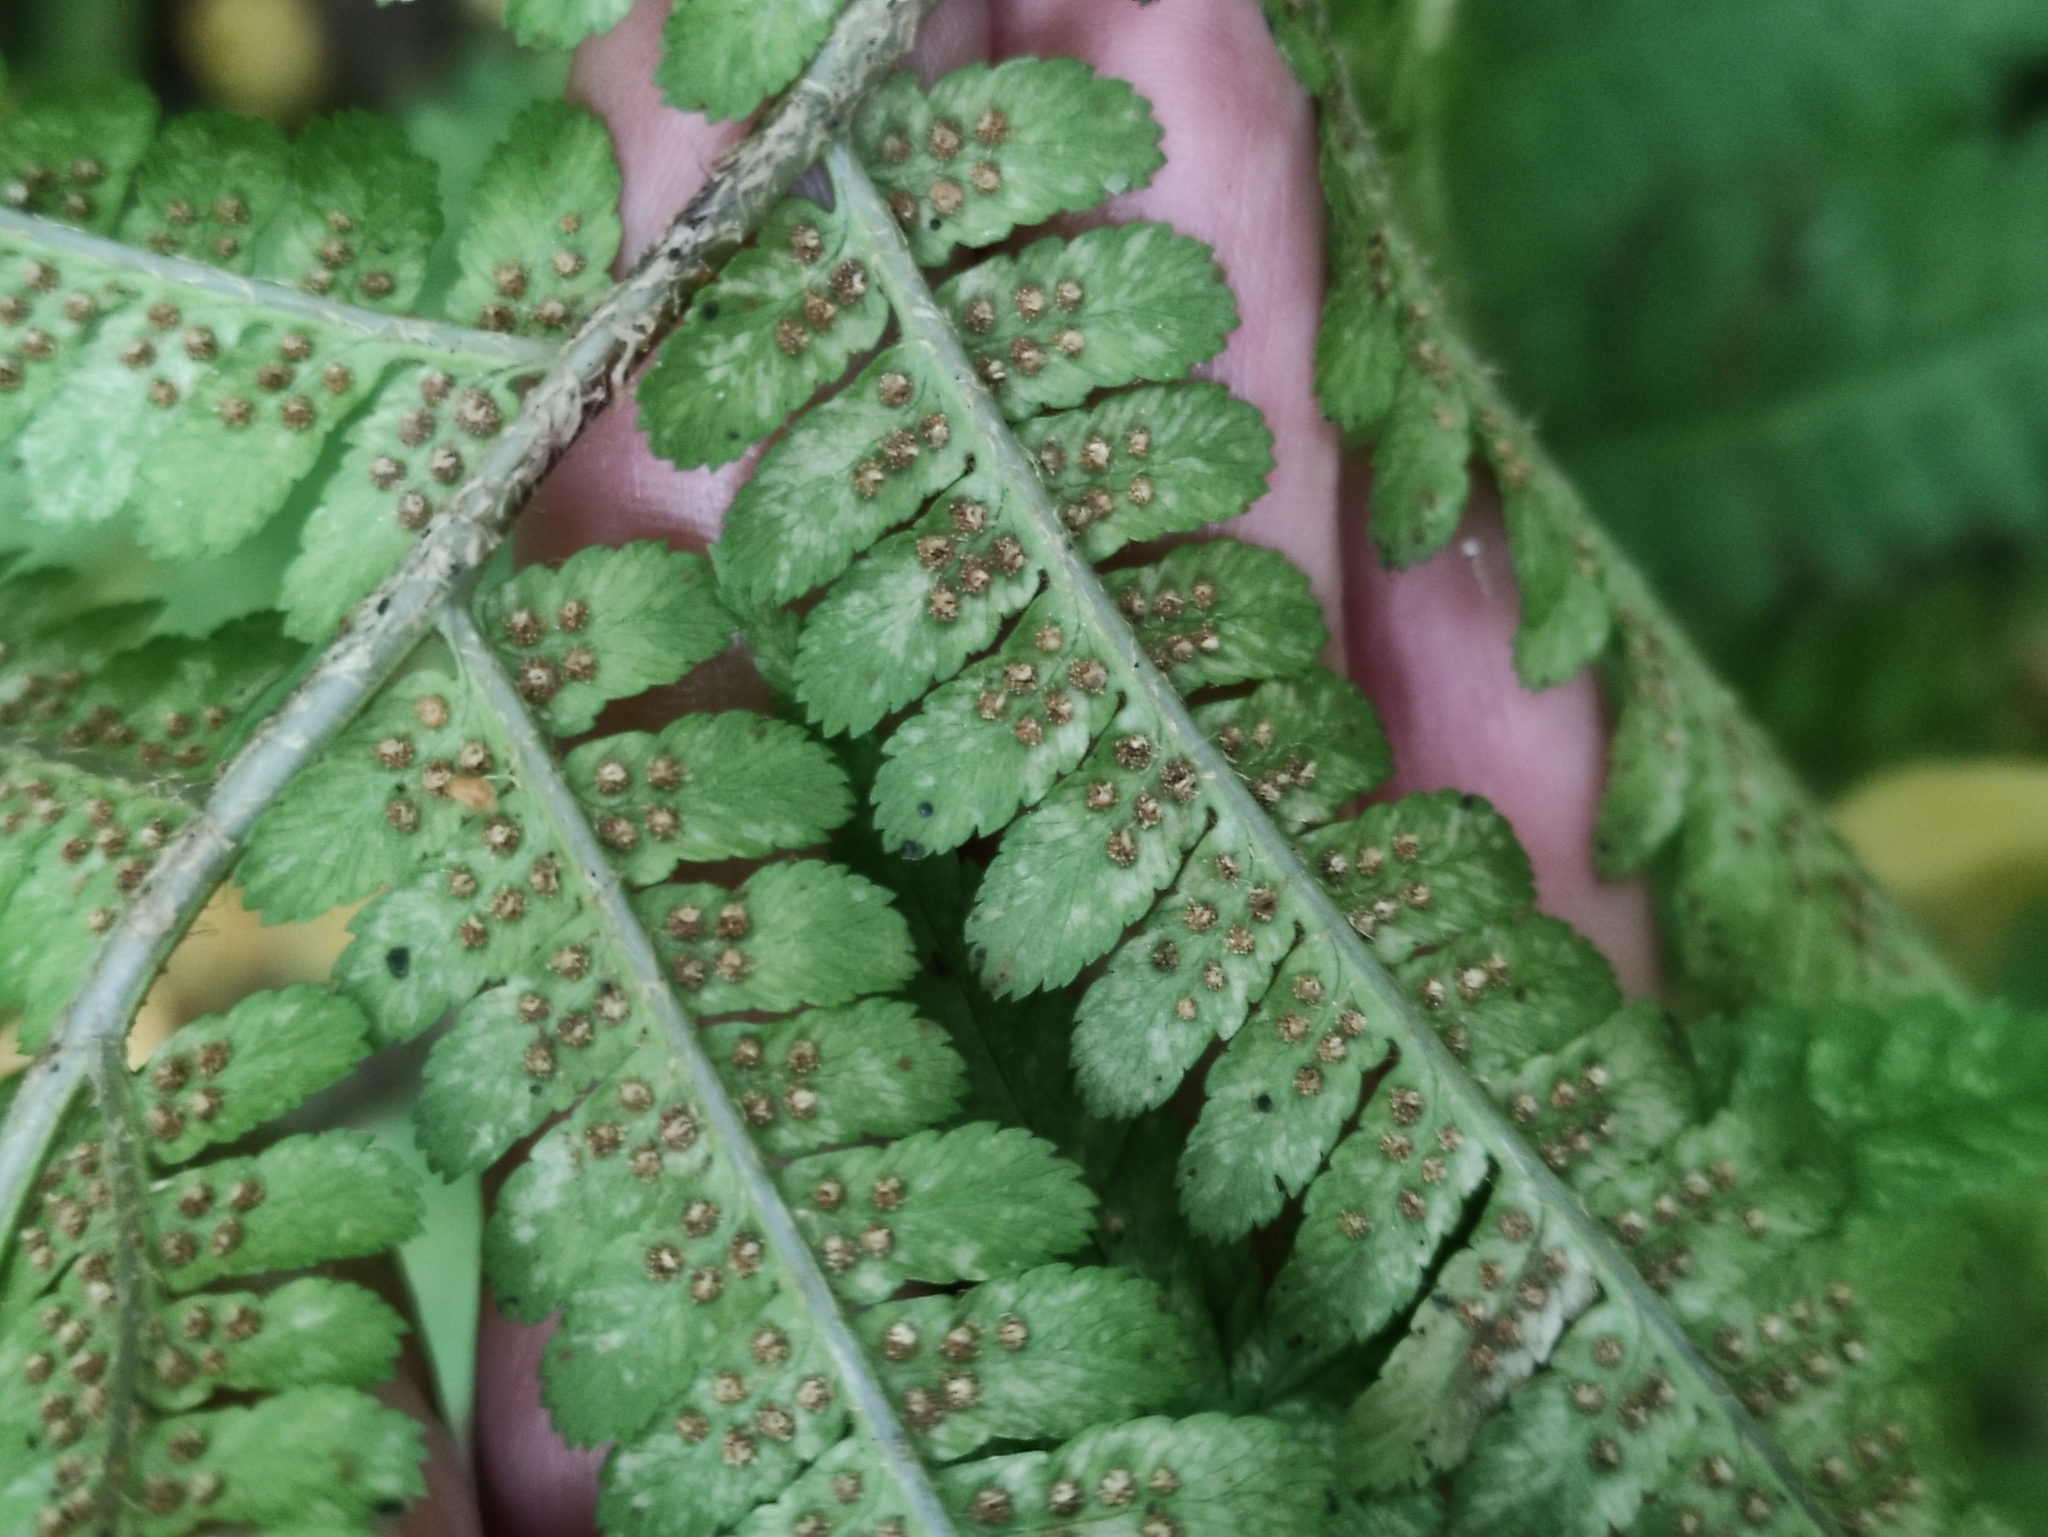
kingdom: Plantae
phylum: Tracheophyta
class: Polypodiopsida
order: Polypodiales
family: Dryopteridaceae
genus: Dryopteris
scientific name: Dryopteris filix-mas
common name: Male fern
